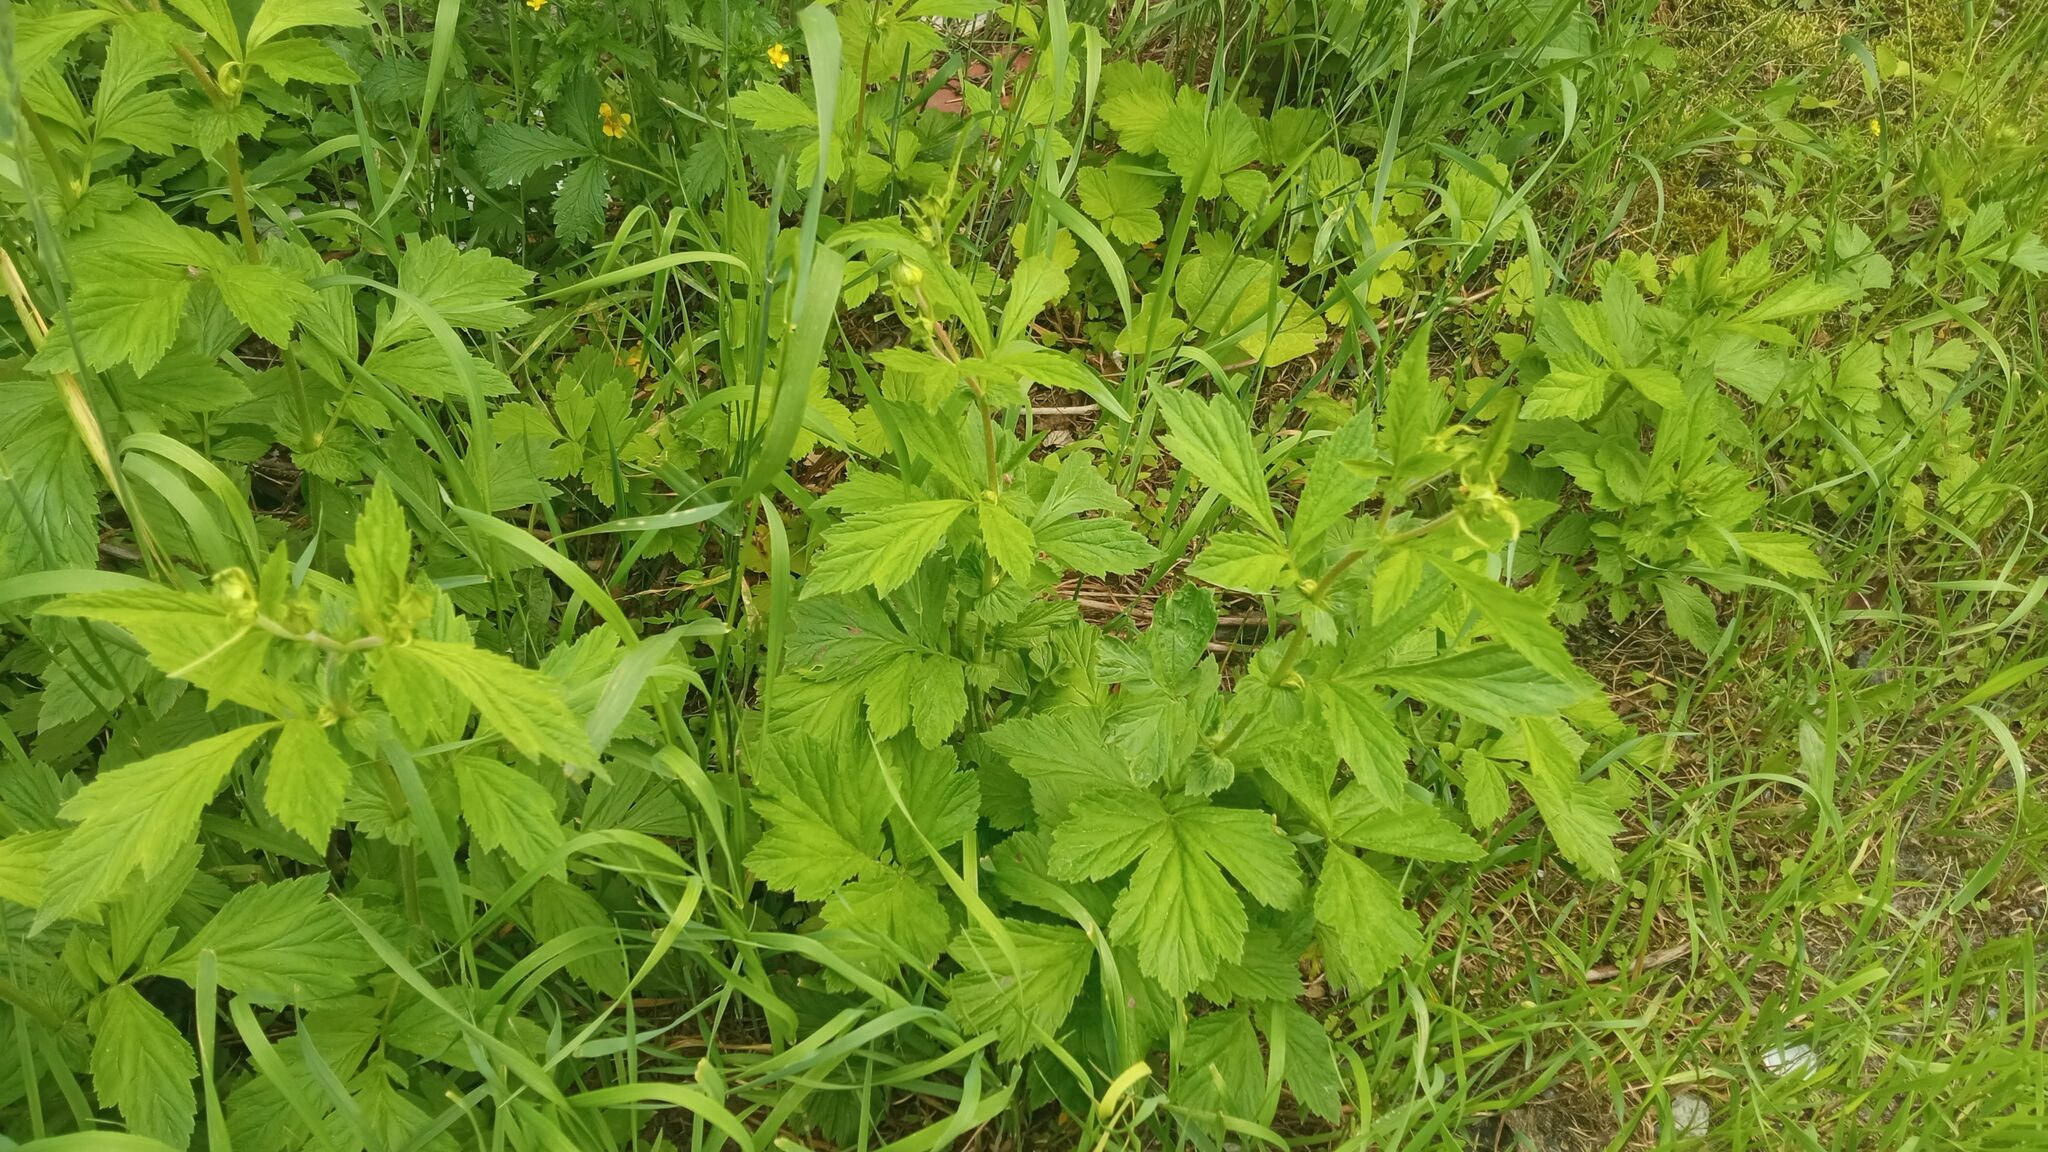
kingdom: Plantae
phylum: Tracheophyta
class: Magnoliopsida
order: Rosales
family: Rosaceae
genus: Geum
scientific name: Geum aleppicum
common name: Yellow avens
